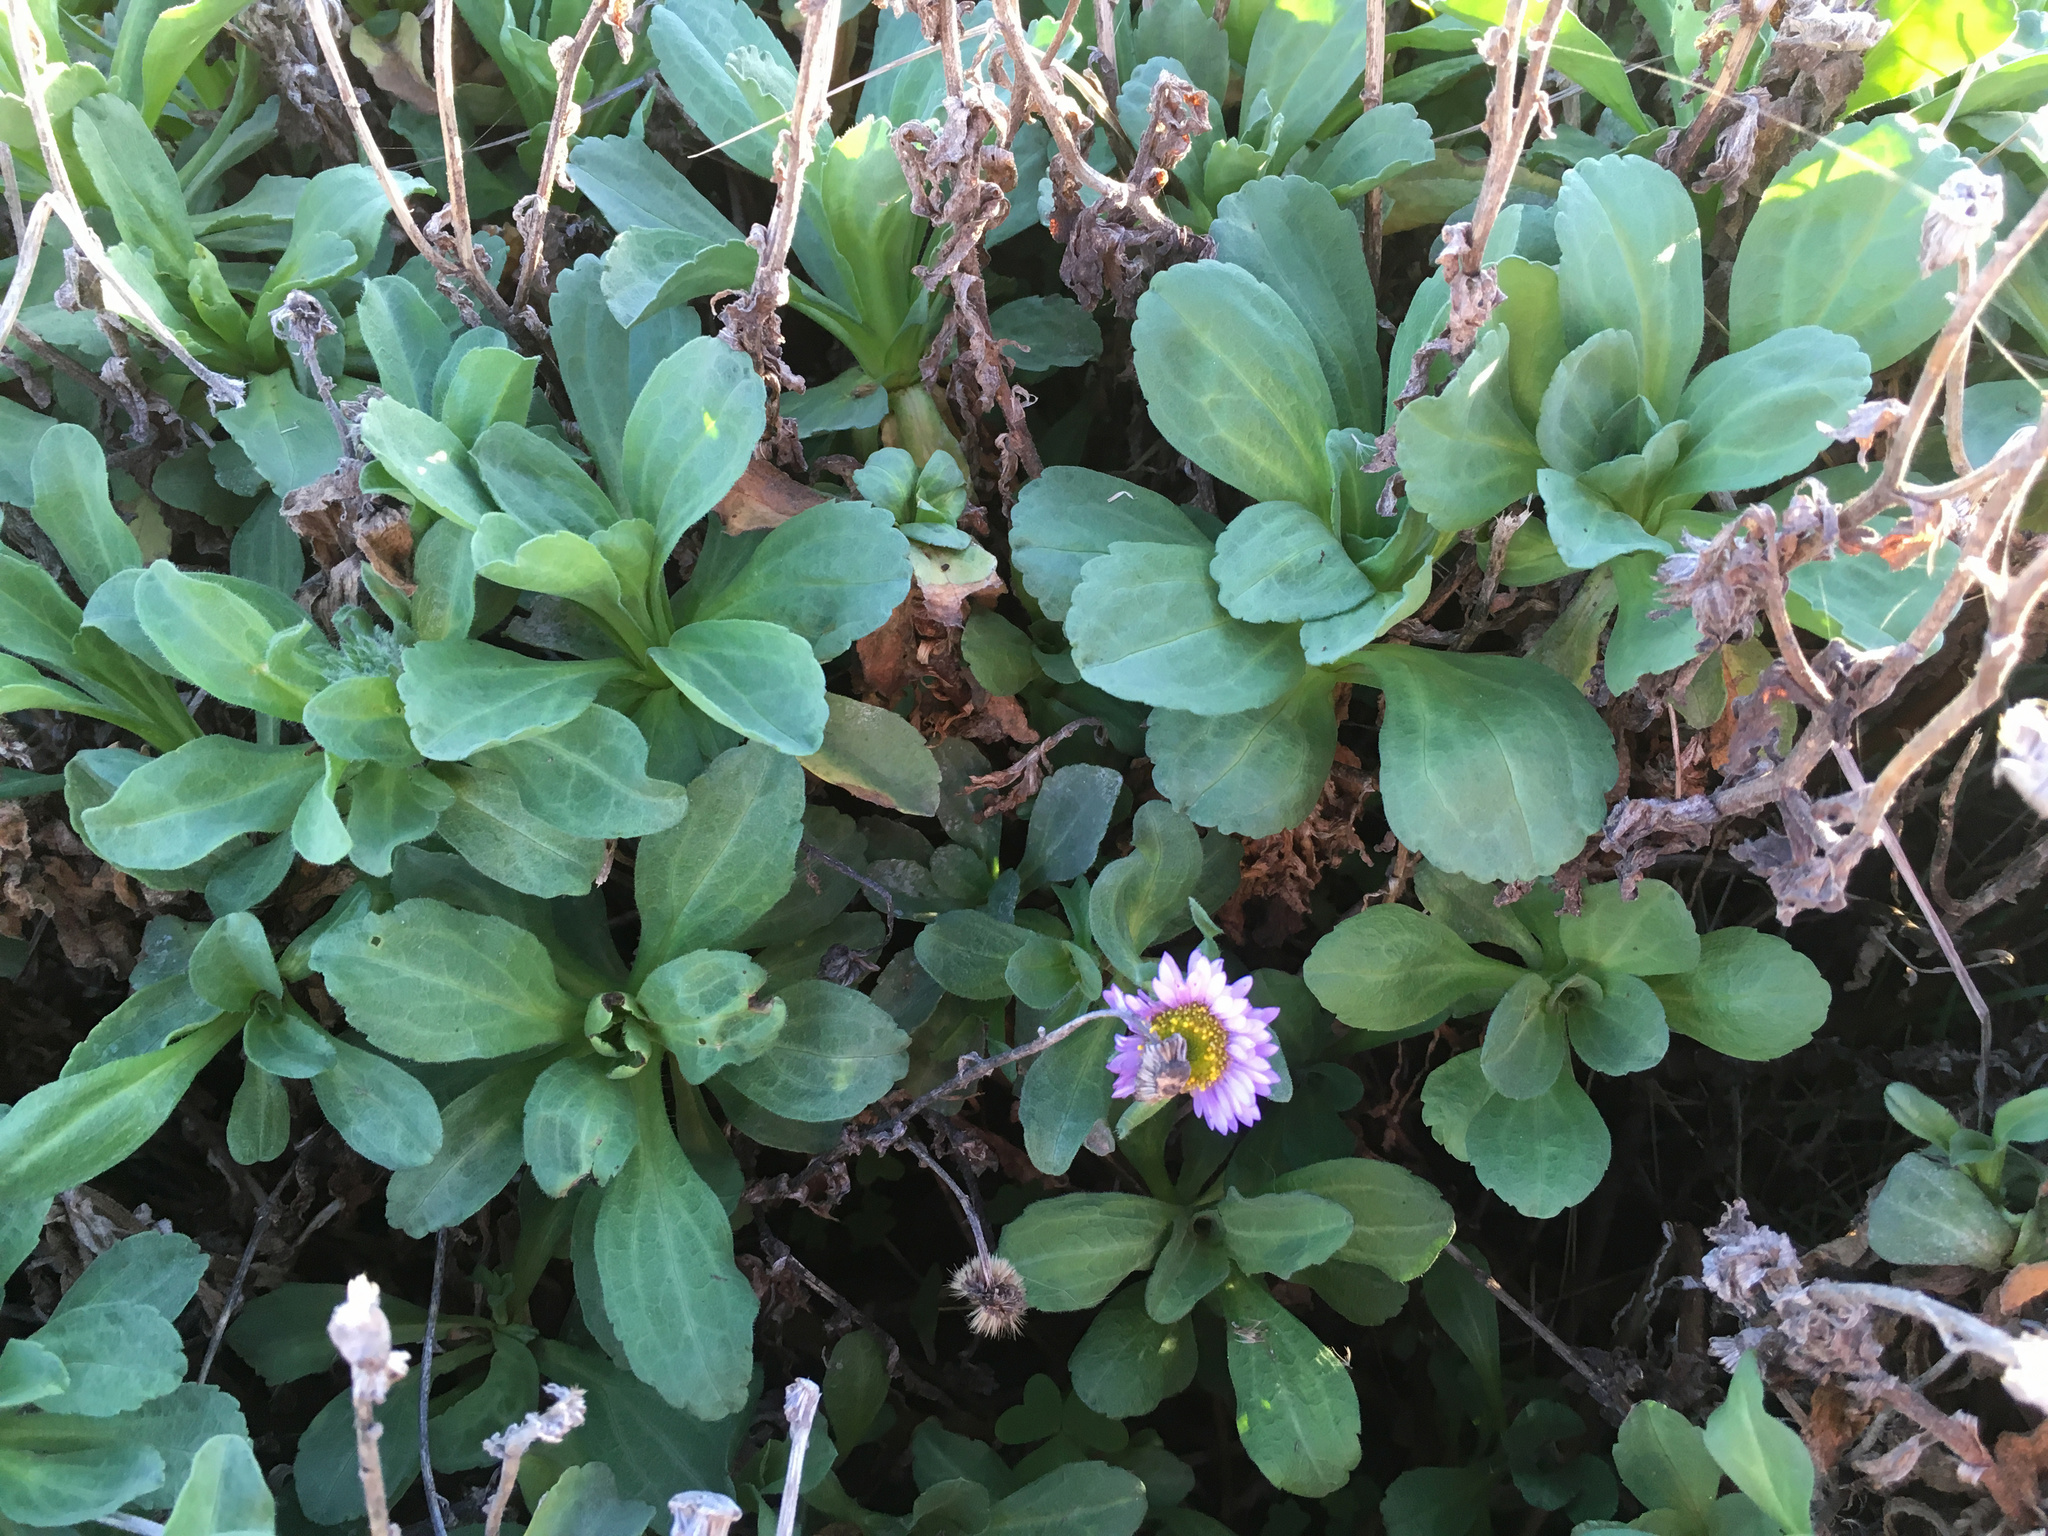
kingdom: Plantae
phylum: Tracheophyta
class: Magnoliopsida
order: Asterales
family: Asteraceae
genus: Erigeron
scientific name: Erigeron glaucus
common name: Seaside daisy
